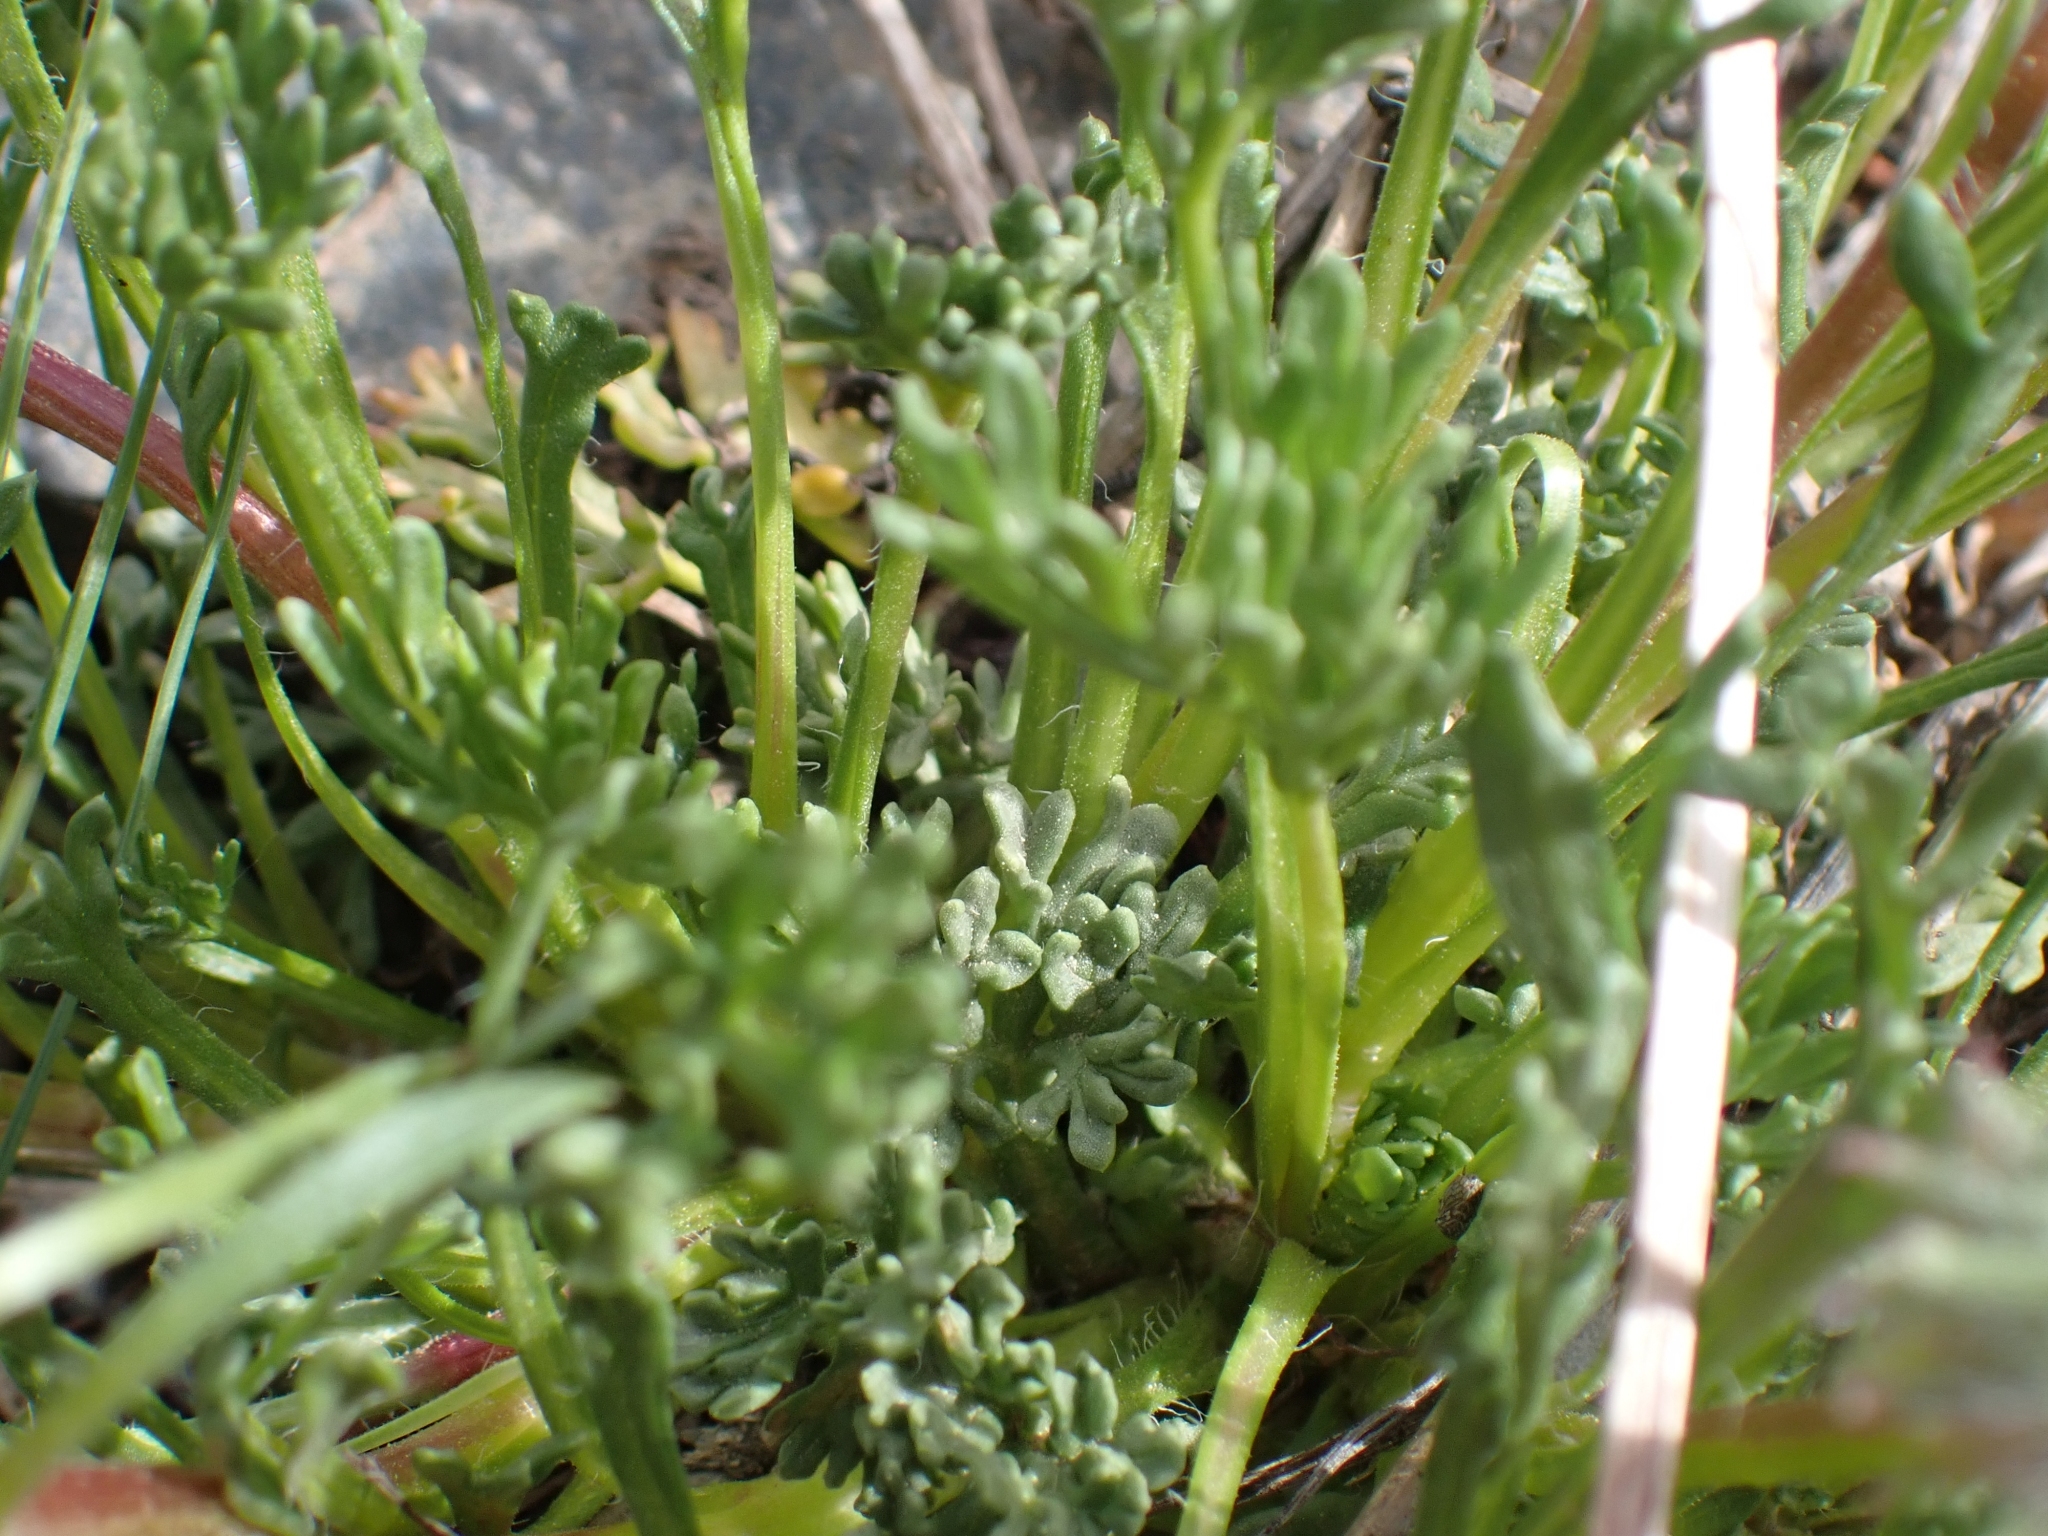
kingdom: Plantae
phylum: Tracheophyta
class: Magnoliopsida
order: Asterales
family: Asteraceae
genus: Erigeron
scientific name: Erigeron compositus
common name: Dwarf mountain fleabane
